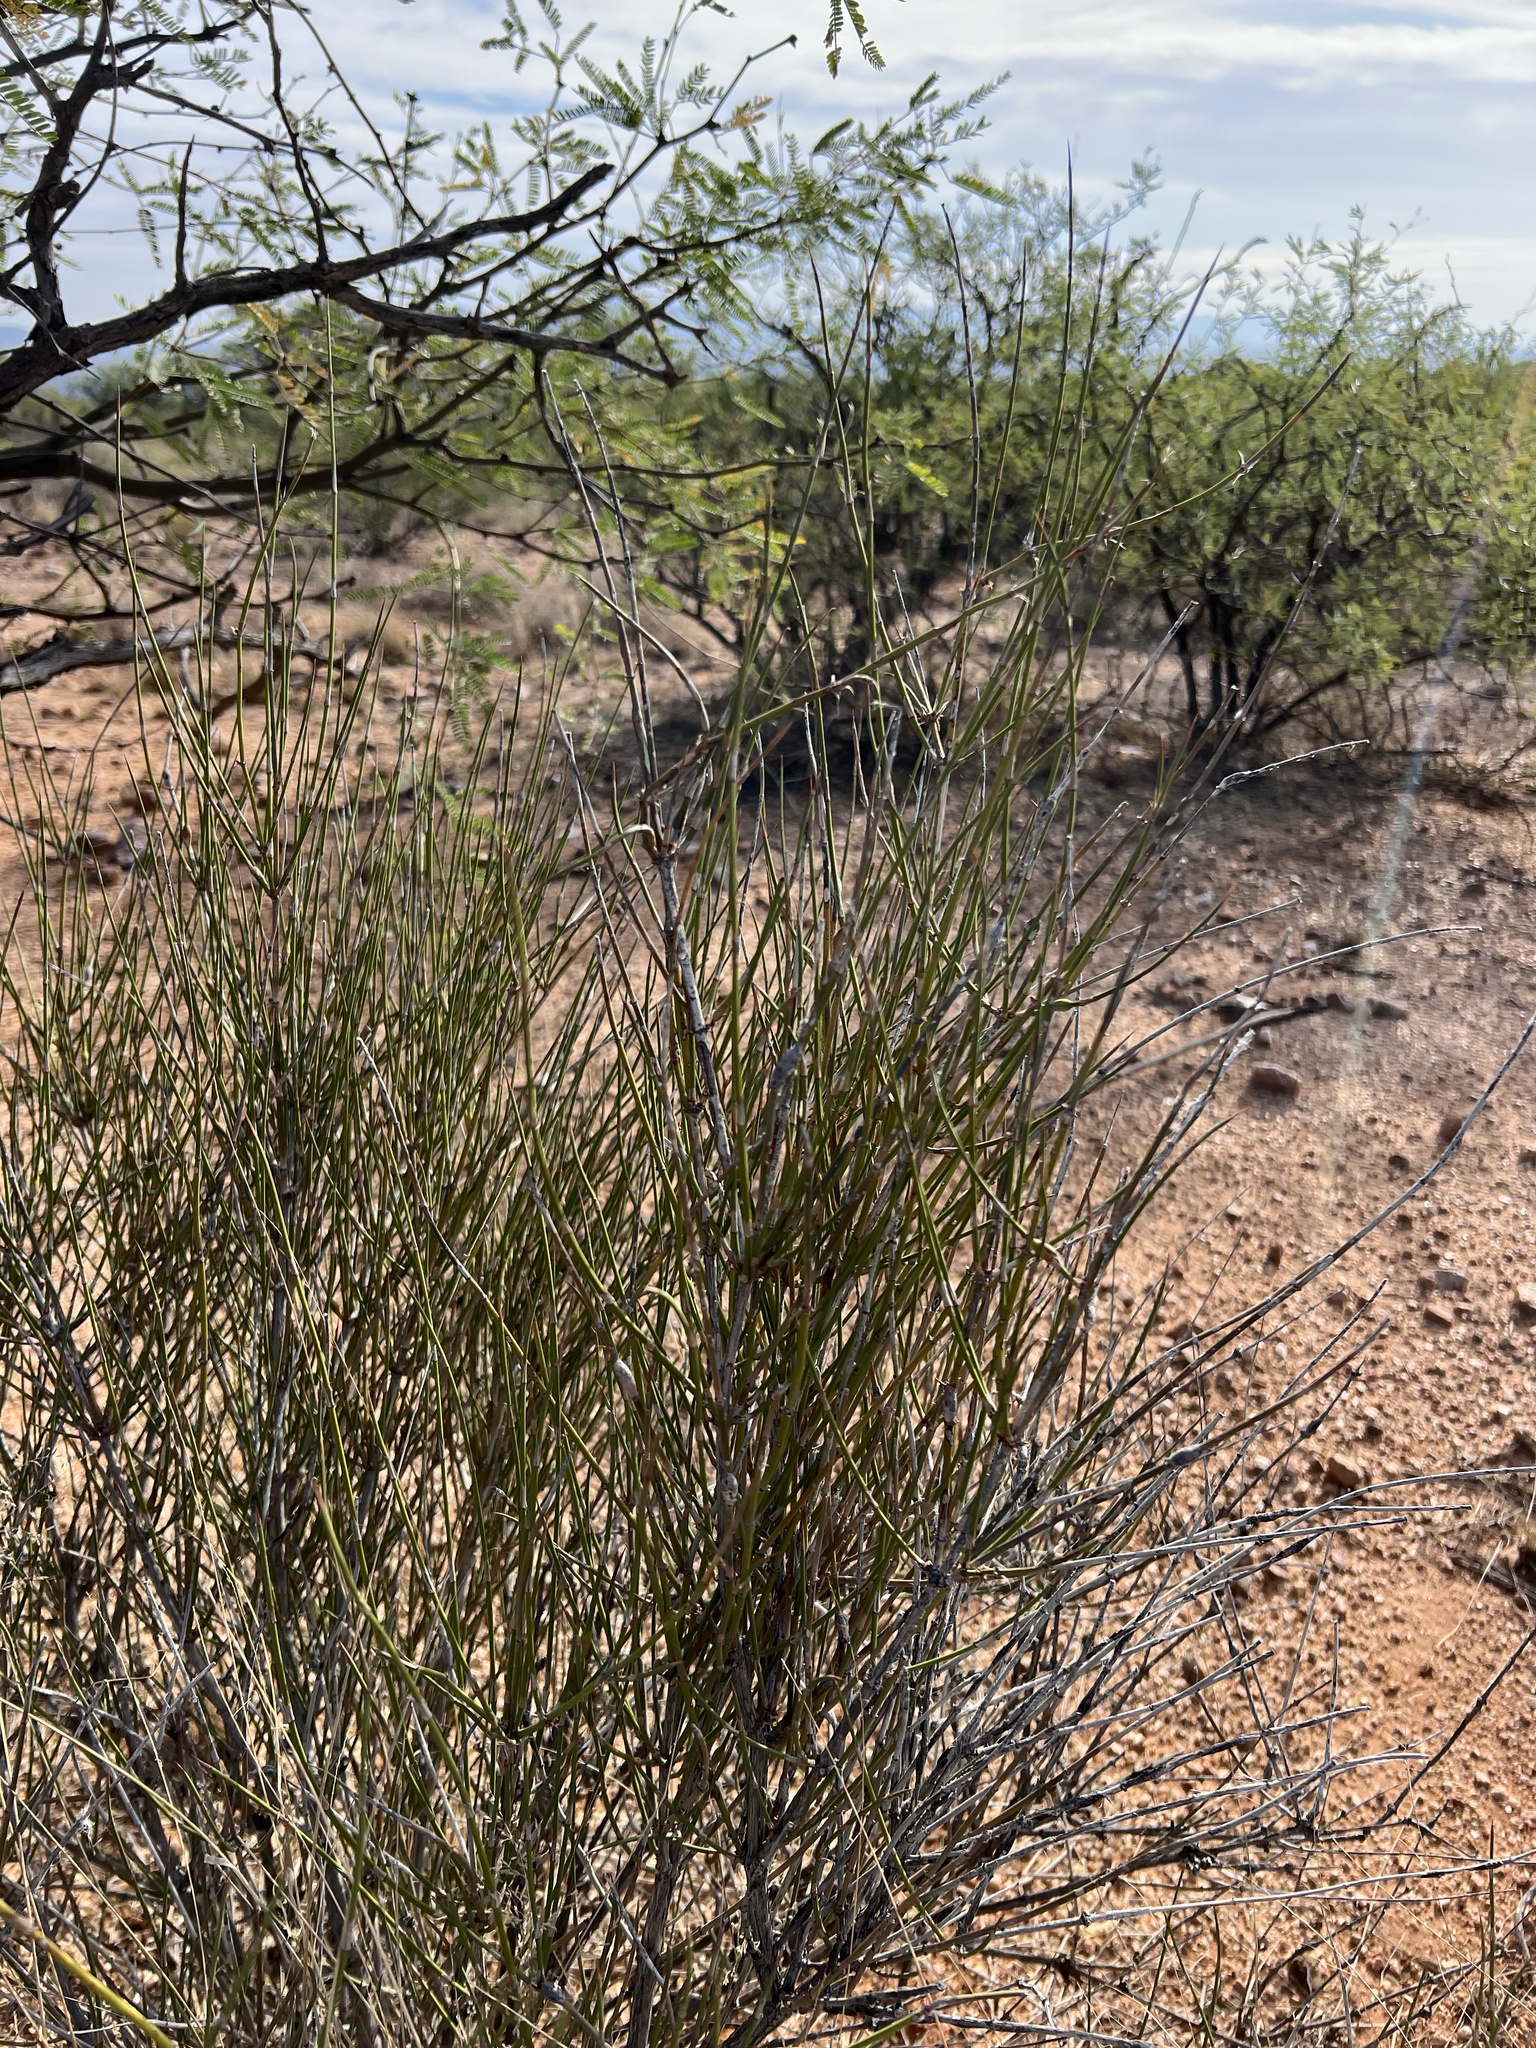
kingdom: Plantae
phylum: Tracheophyta
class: Gnetopsida
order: Ephedrales
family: Ephedraceae
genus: Ephedra
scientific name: Ephedra trifurca
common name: Mexican-tea
